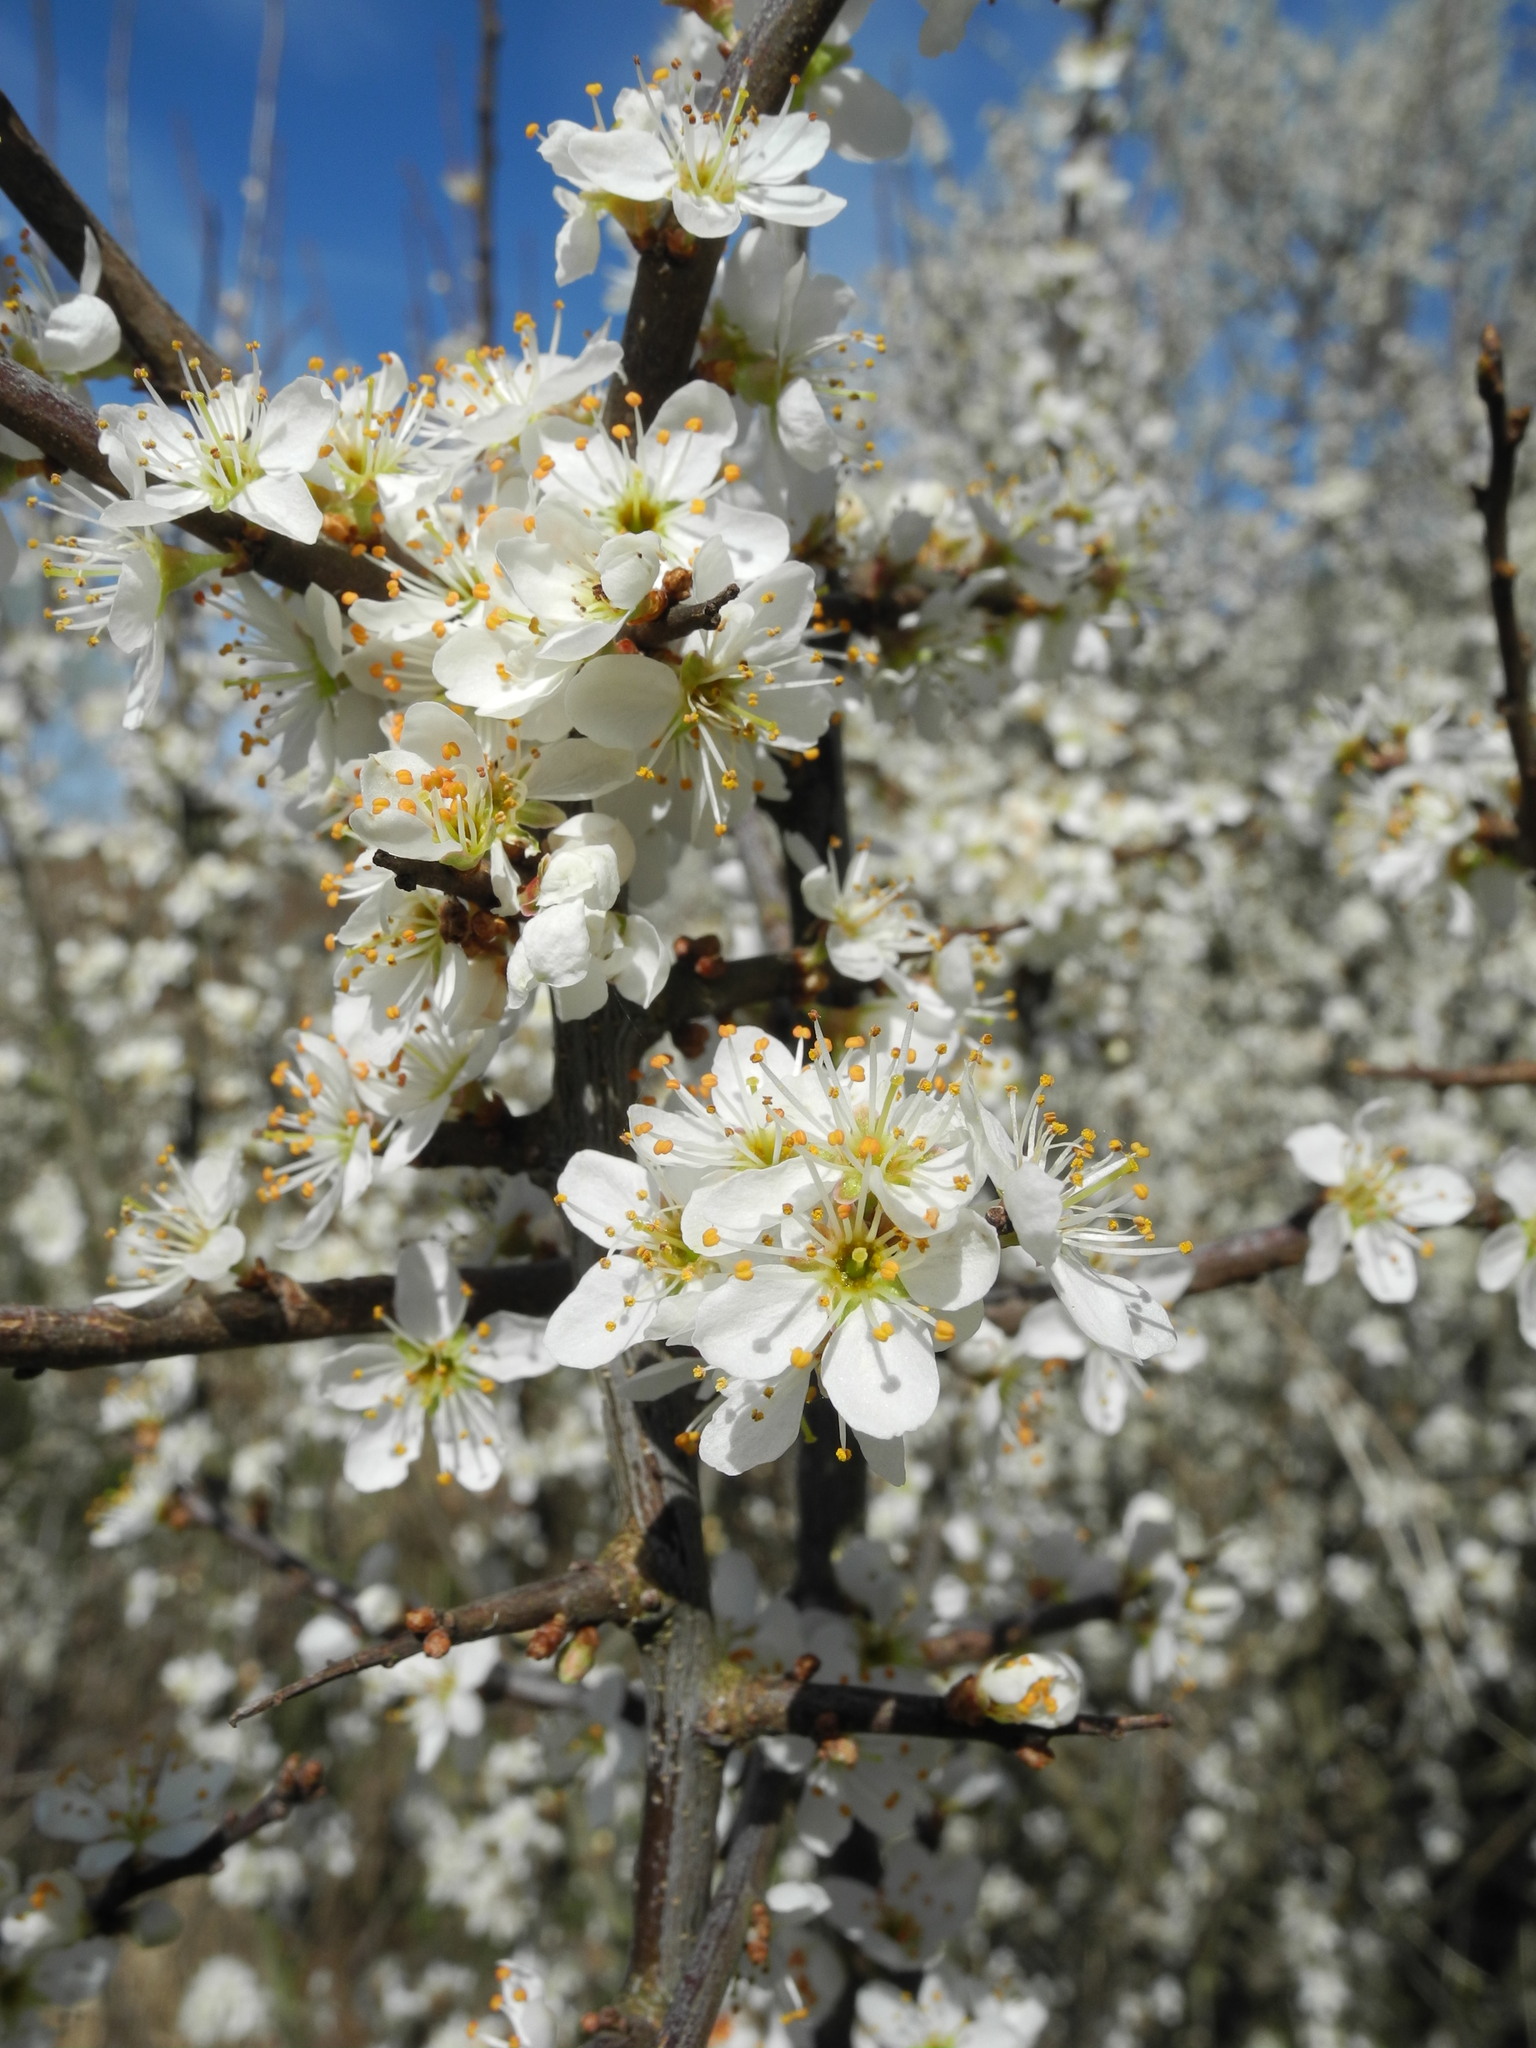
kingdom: Plantae
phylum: Tracheophyta
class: Magnoliopsida
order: Rosales
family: Rosaceae
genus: Prunus
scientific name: Prunus spinosa
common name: Blackthorn
